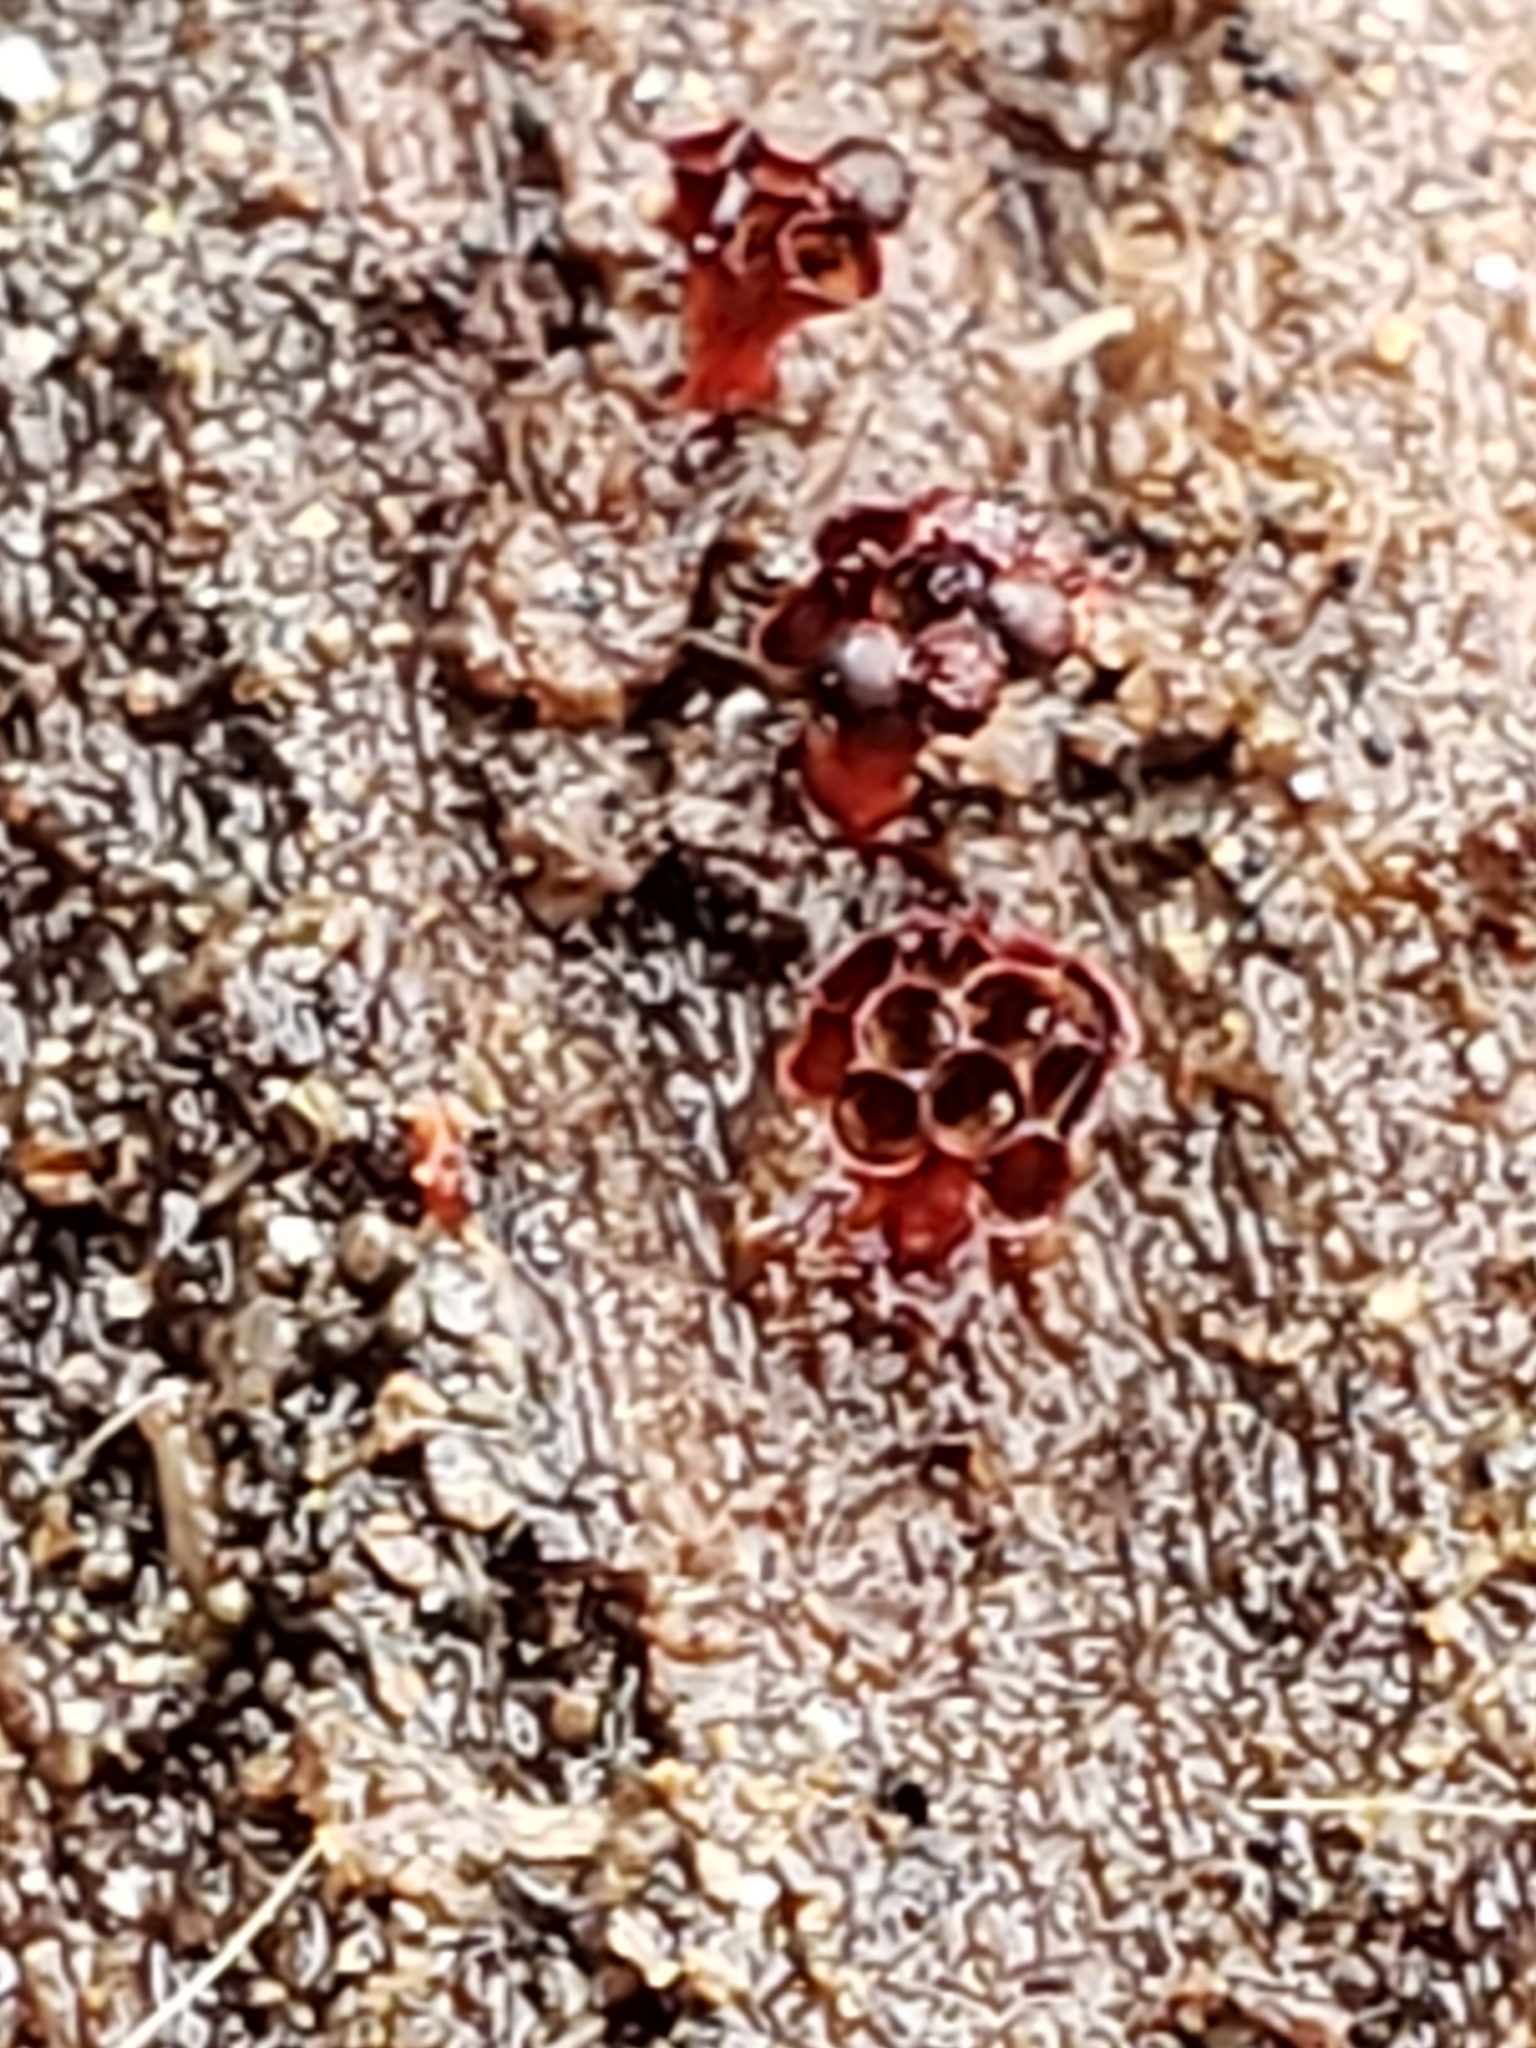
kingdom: Protozoa
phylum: Mycetozoa
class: Myxomycetes
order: Trichiales
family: Trichiaceae
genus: Metatrichia
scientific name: Metatrichia vesparia
